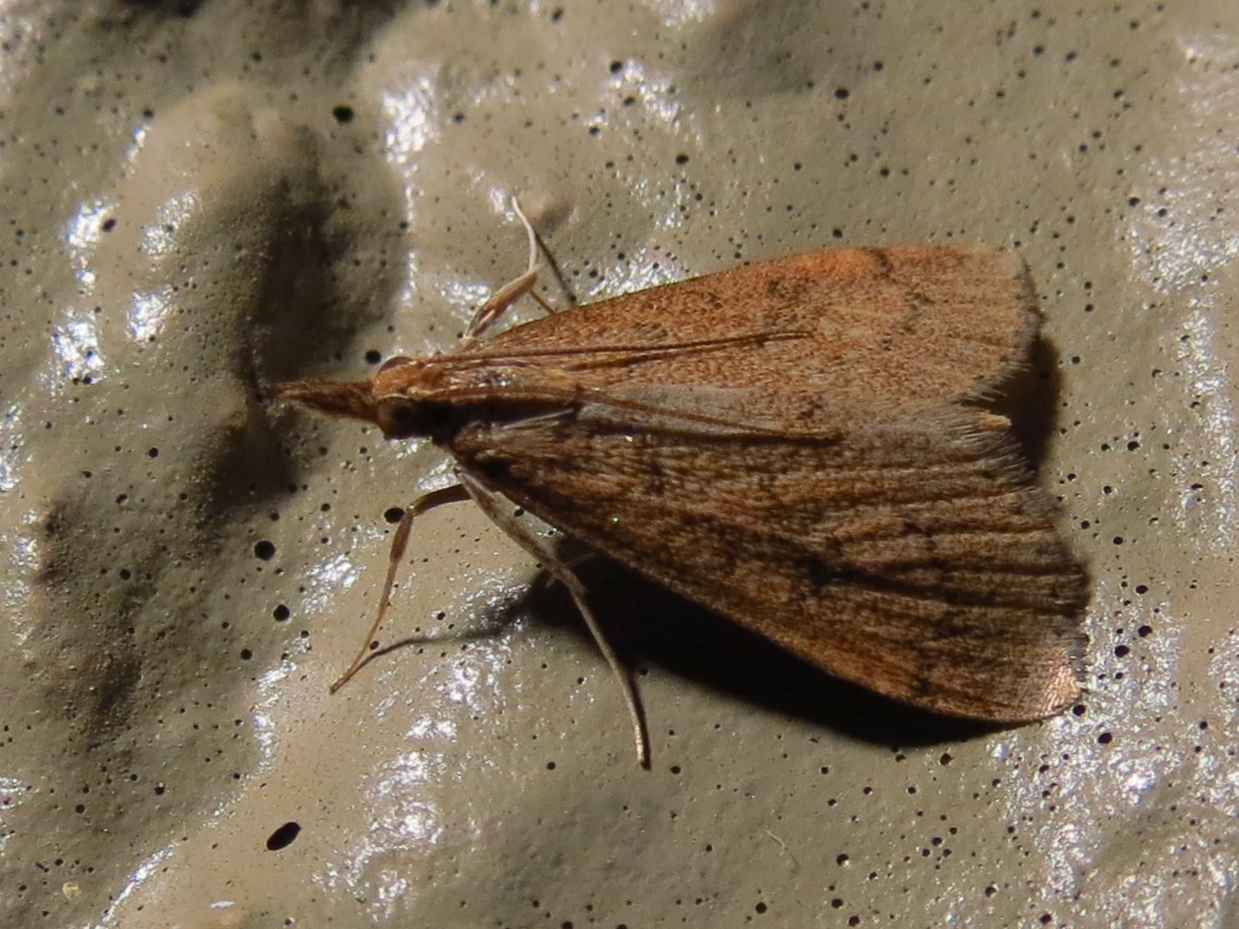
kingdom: Animalia
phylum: Arthropoda
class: Insecta
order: Lepidoptera
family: Crambidae
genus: Udea
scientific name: Udea rubigalis
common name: Celery leaftier moth
